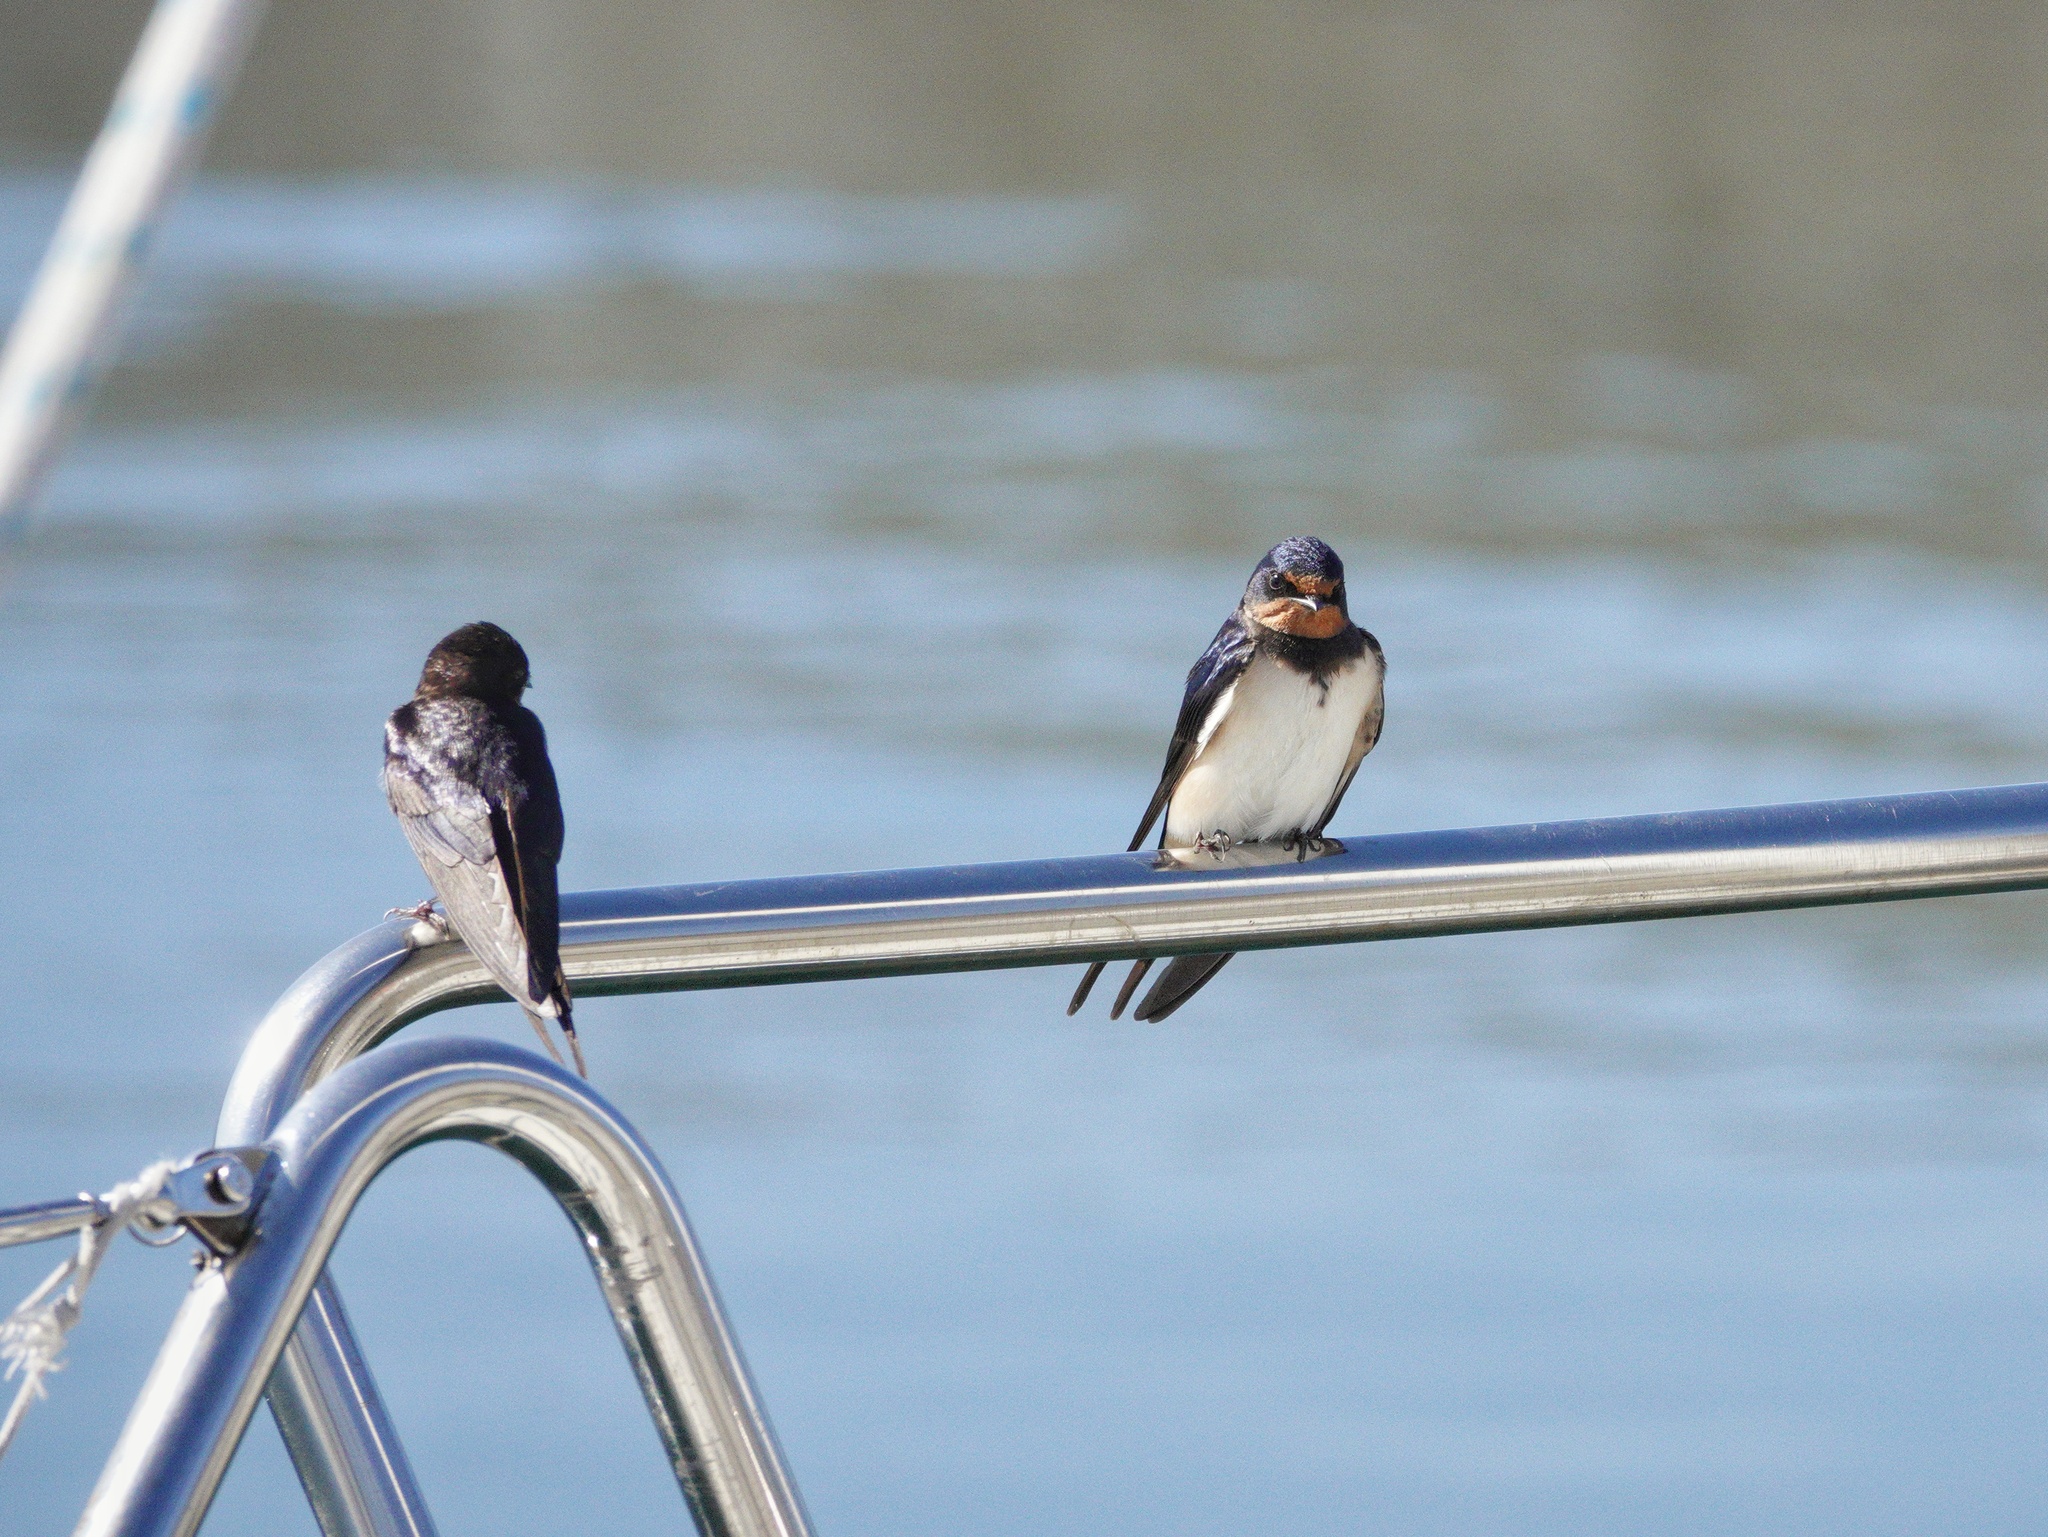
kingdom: Animalia
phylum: Chordata
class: Aves
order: Passeriformes
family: Hirundinidae
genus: Hirundo
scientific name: Hirundo rustica
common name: Barn swallow
